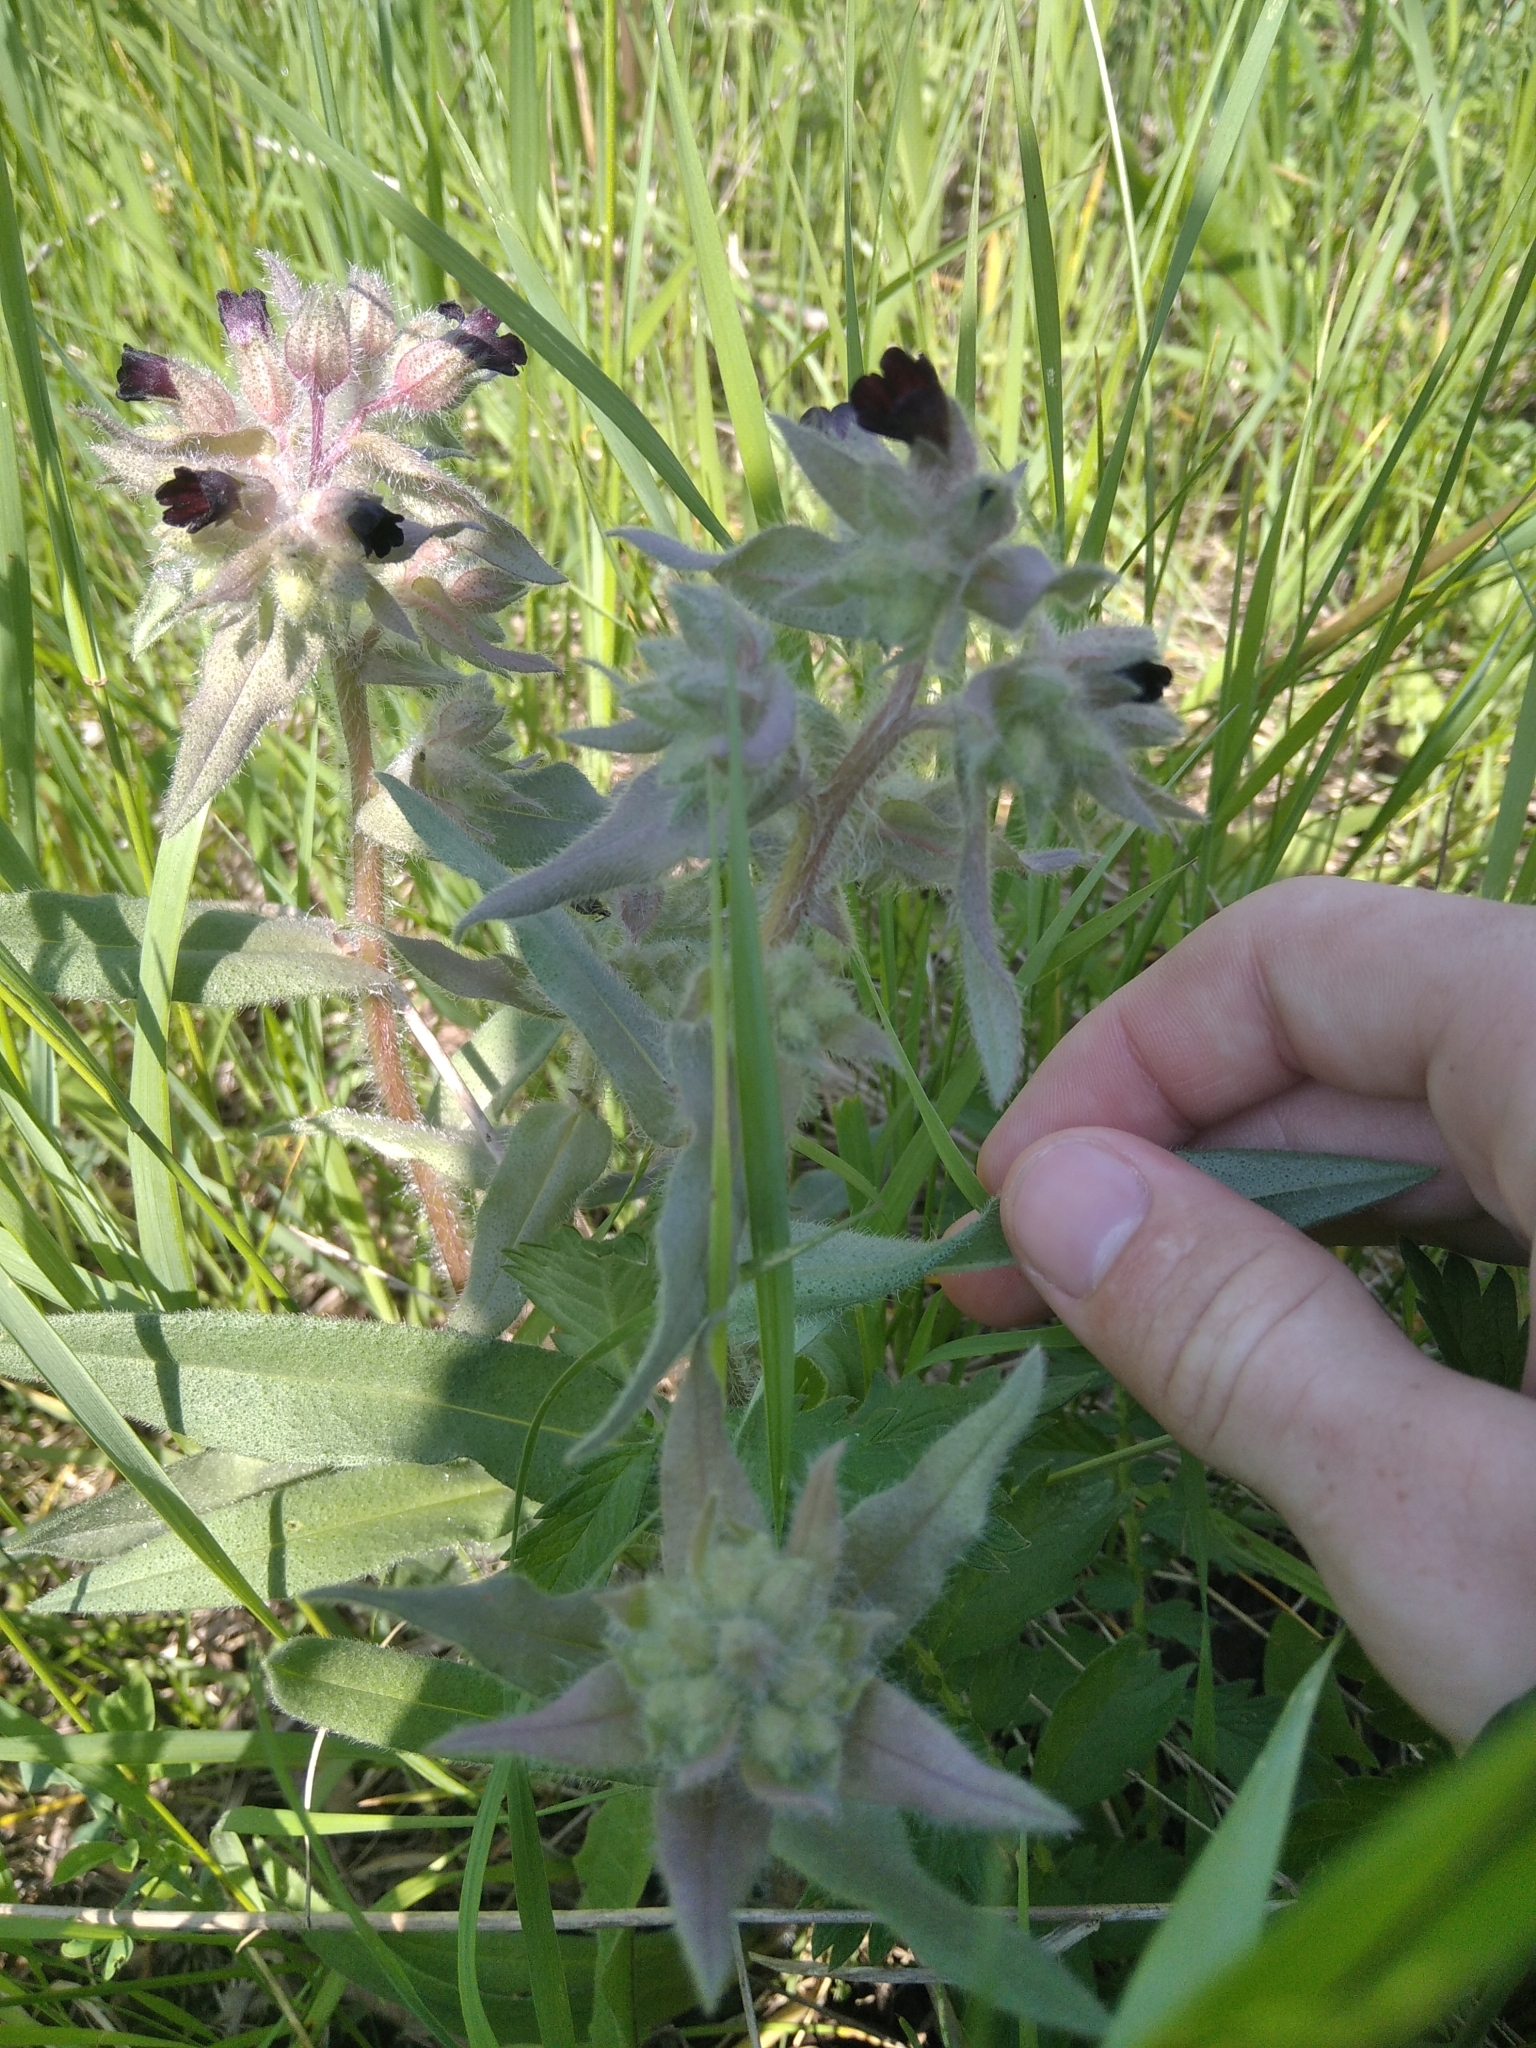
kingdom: Plantae
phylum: Tracheophyta
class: Magnoliopsida
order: Boraginales
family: Boraginaceae
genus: Nonea
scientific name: Nonea pulla
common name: Brown nonea
